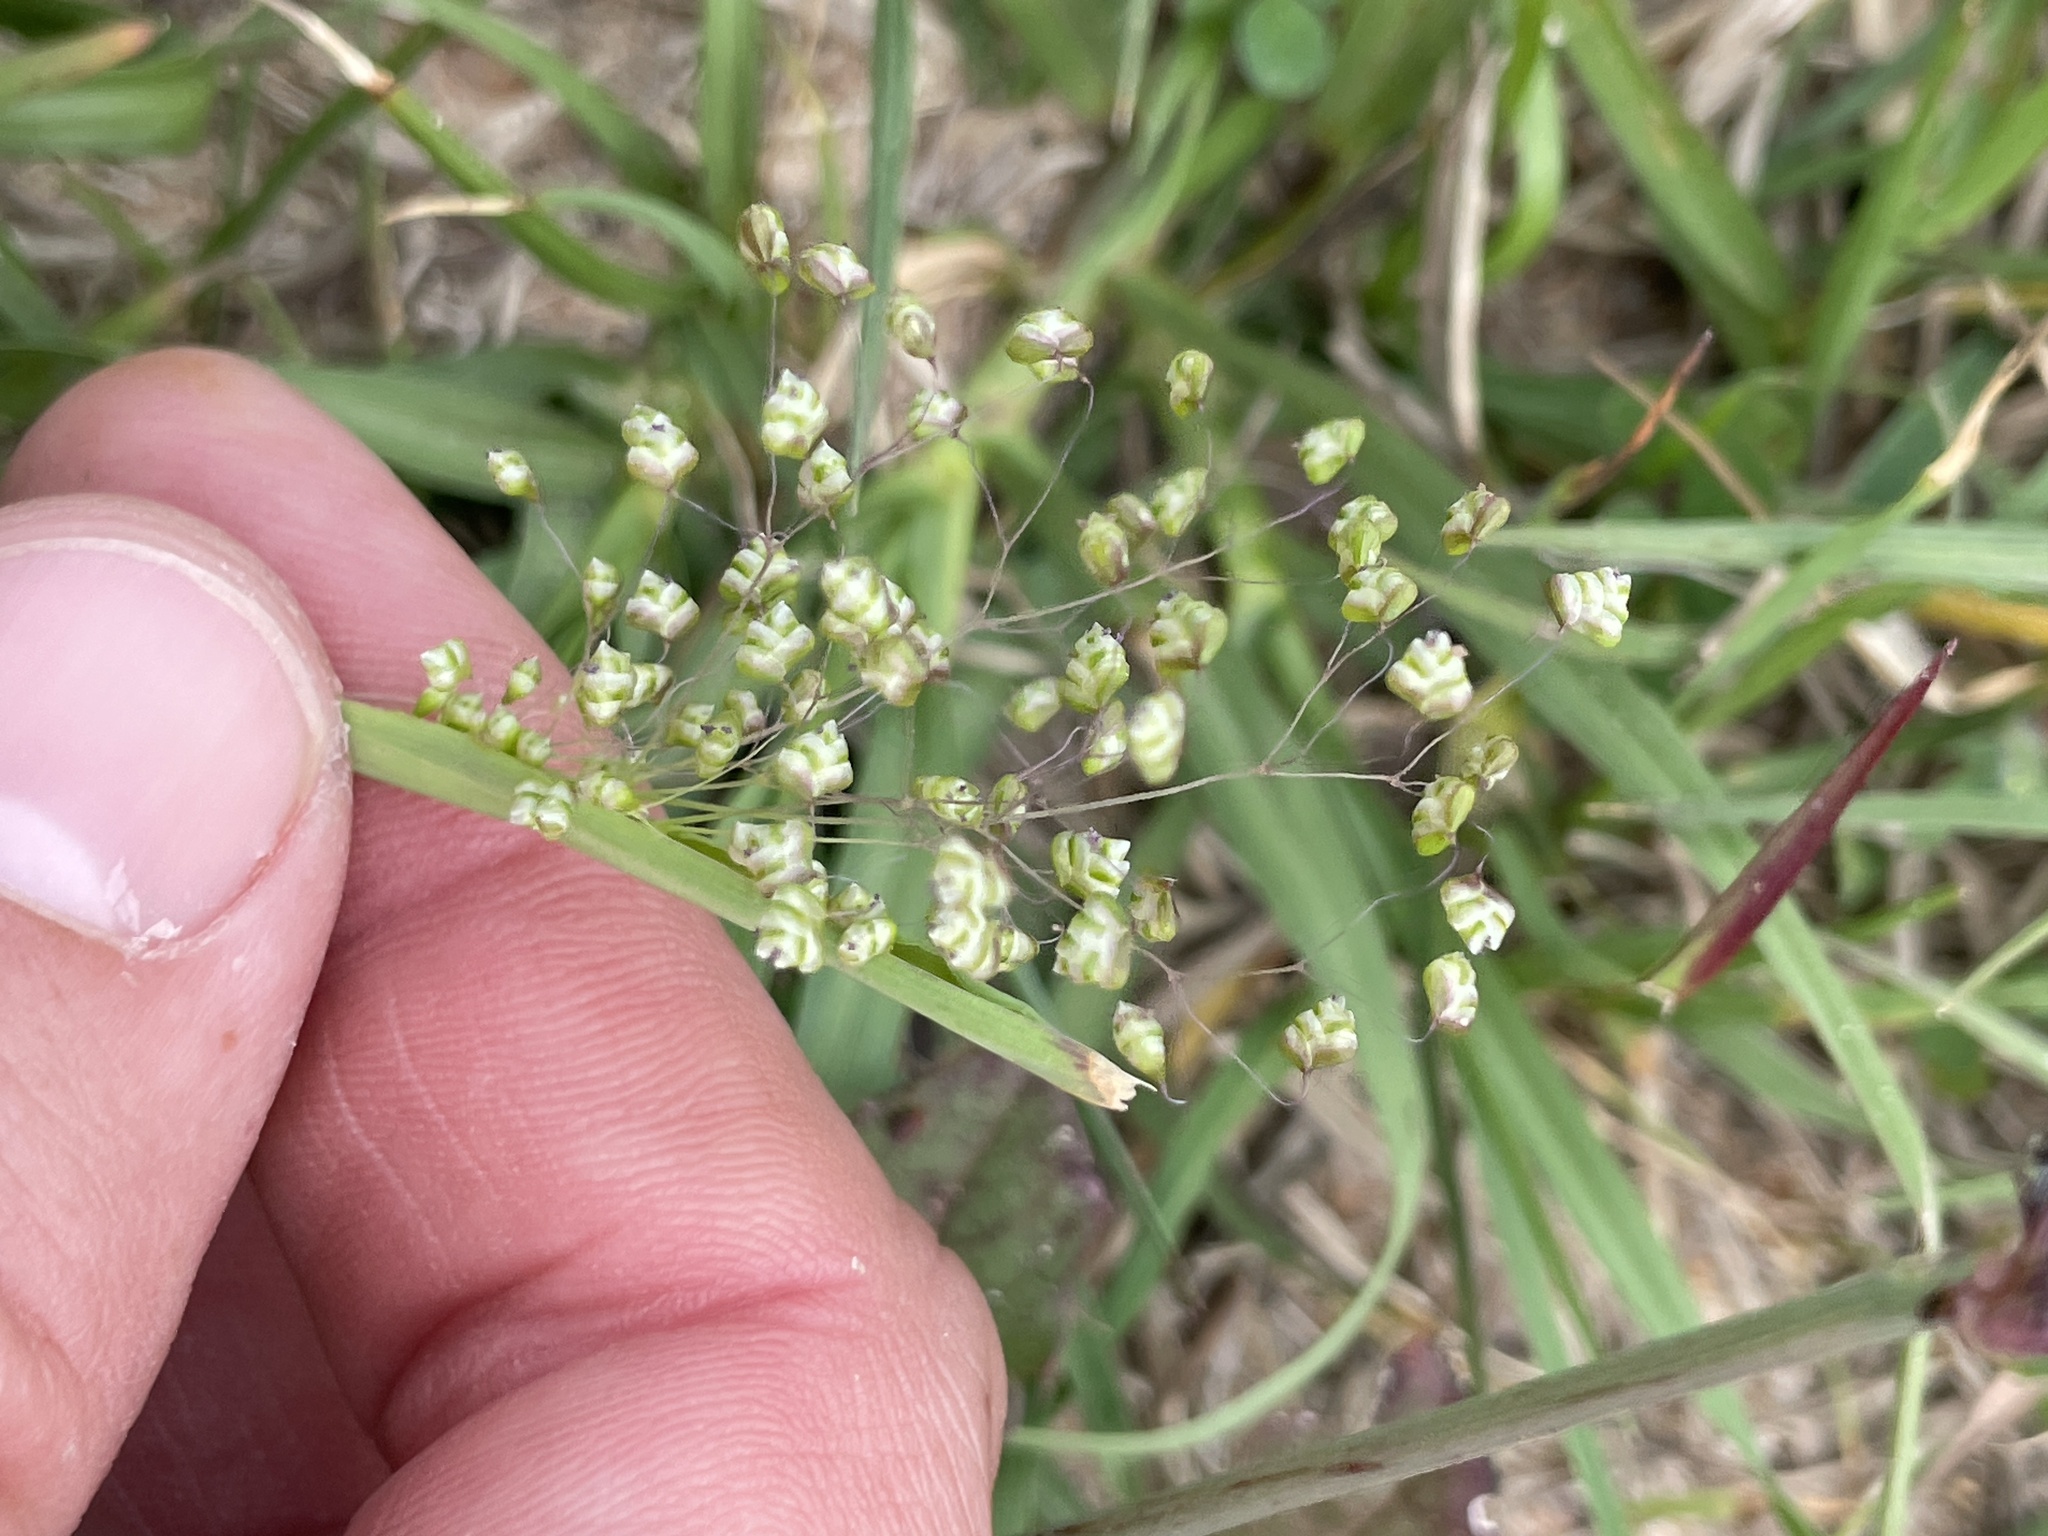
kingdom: Plantae
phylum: Tracheophyta
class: Liliopsida
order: Poales
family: Poaceae
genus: Briza
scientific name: Briza minor
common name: Lesser quaking-grass
